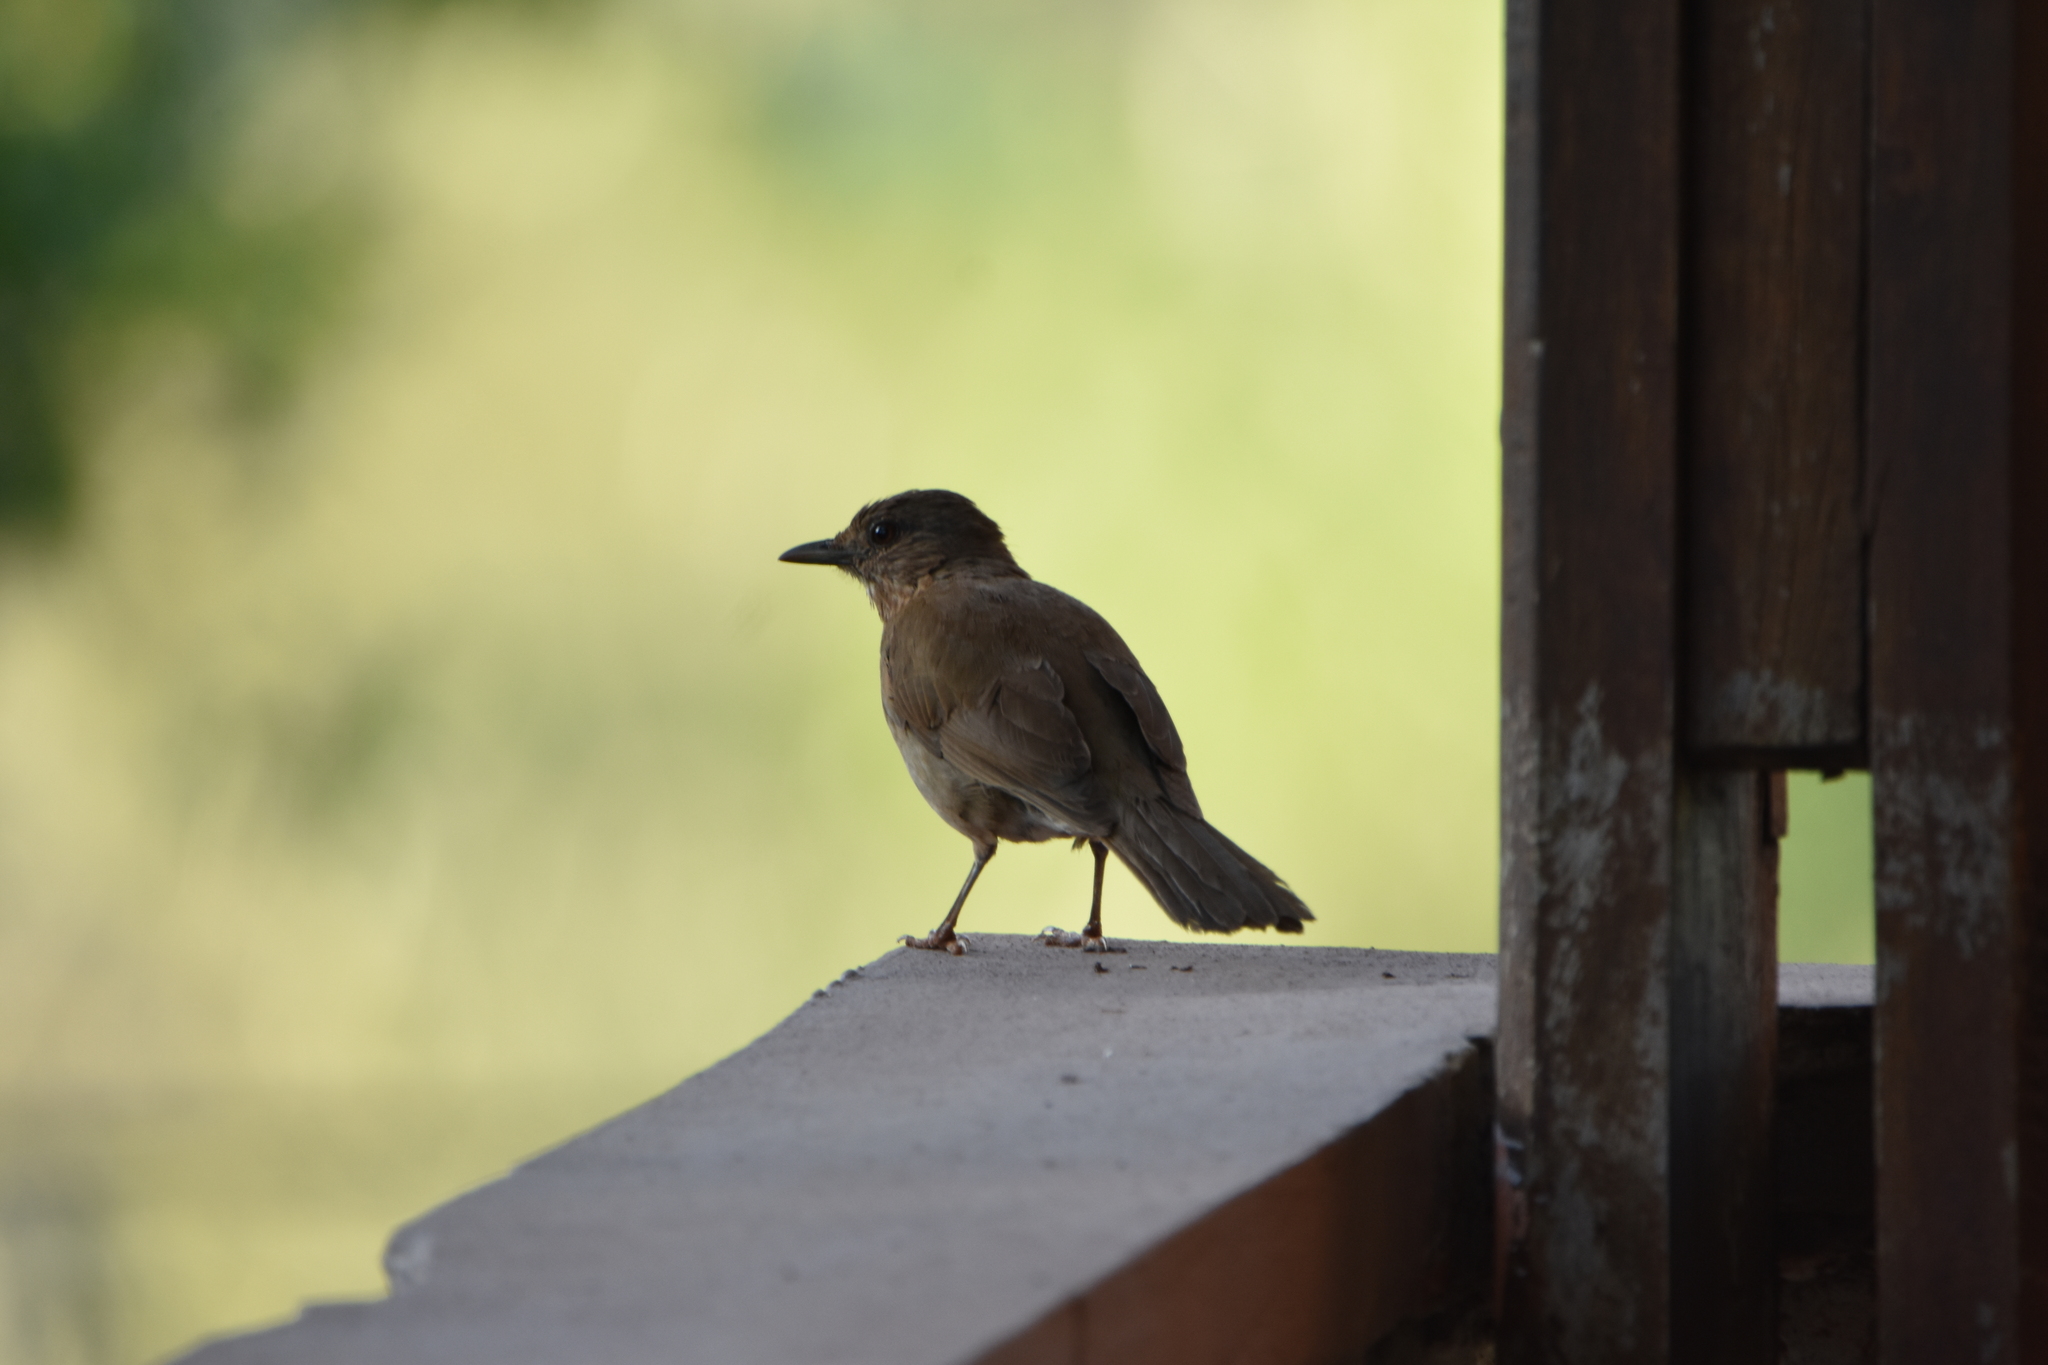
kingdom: Animalia
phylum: Chordata
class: Aves
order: Passeriformes
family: Turdidae
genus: Turdus
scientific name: Turdus leucomelas
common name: Pale-breasted thrush
